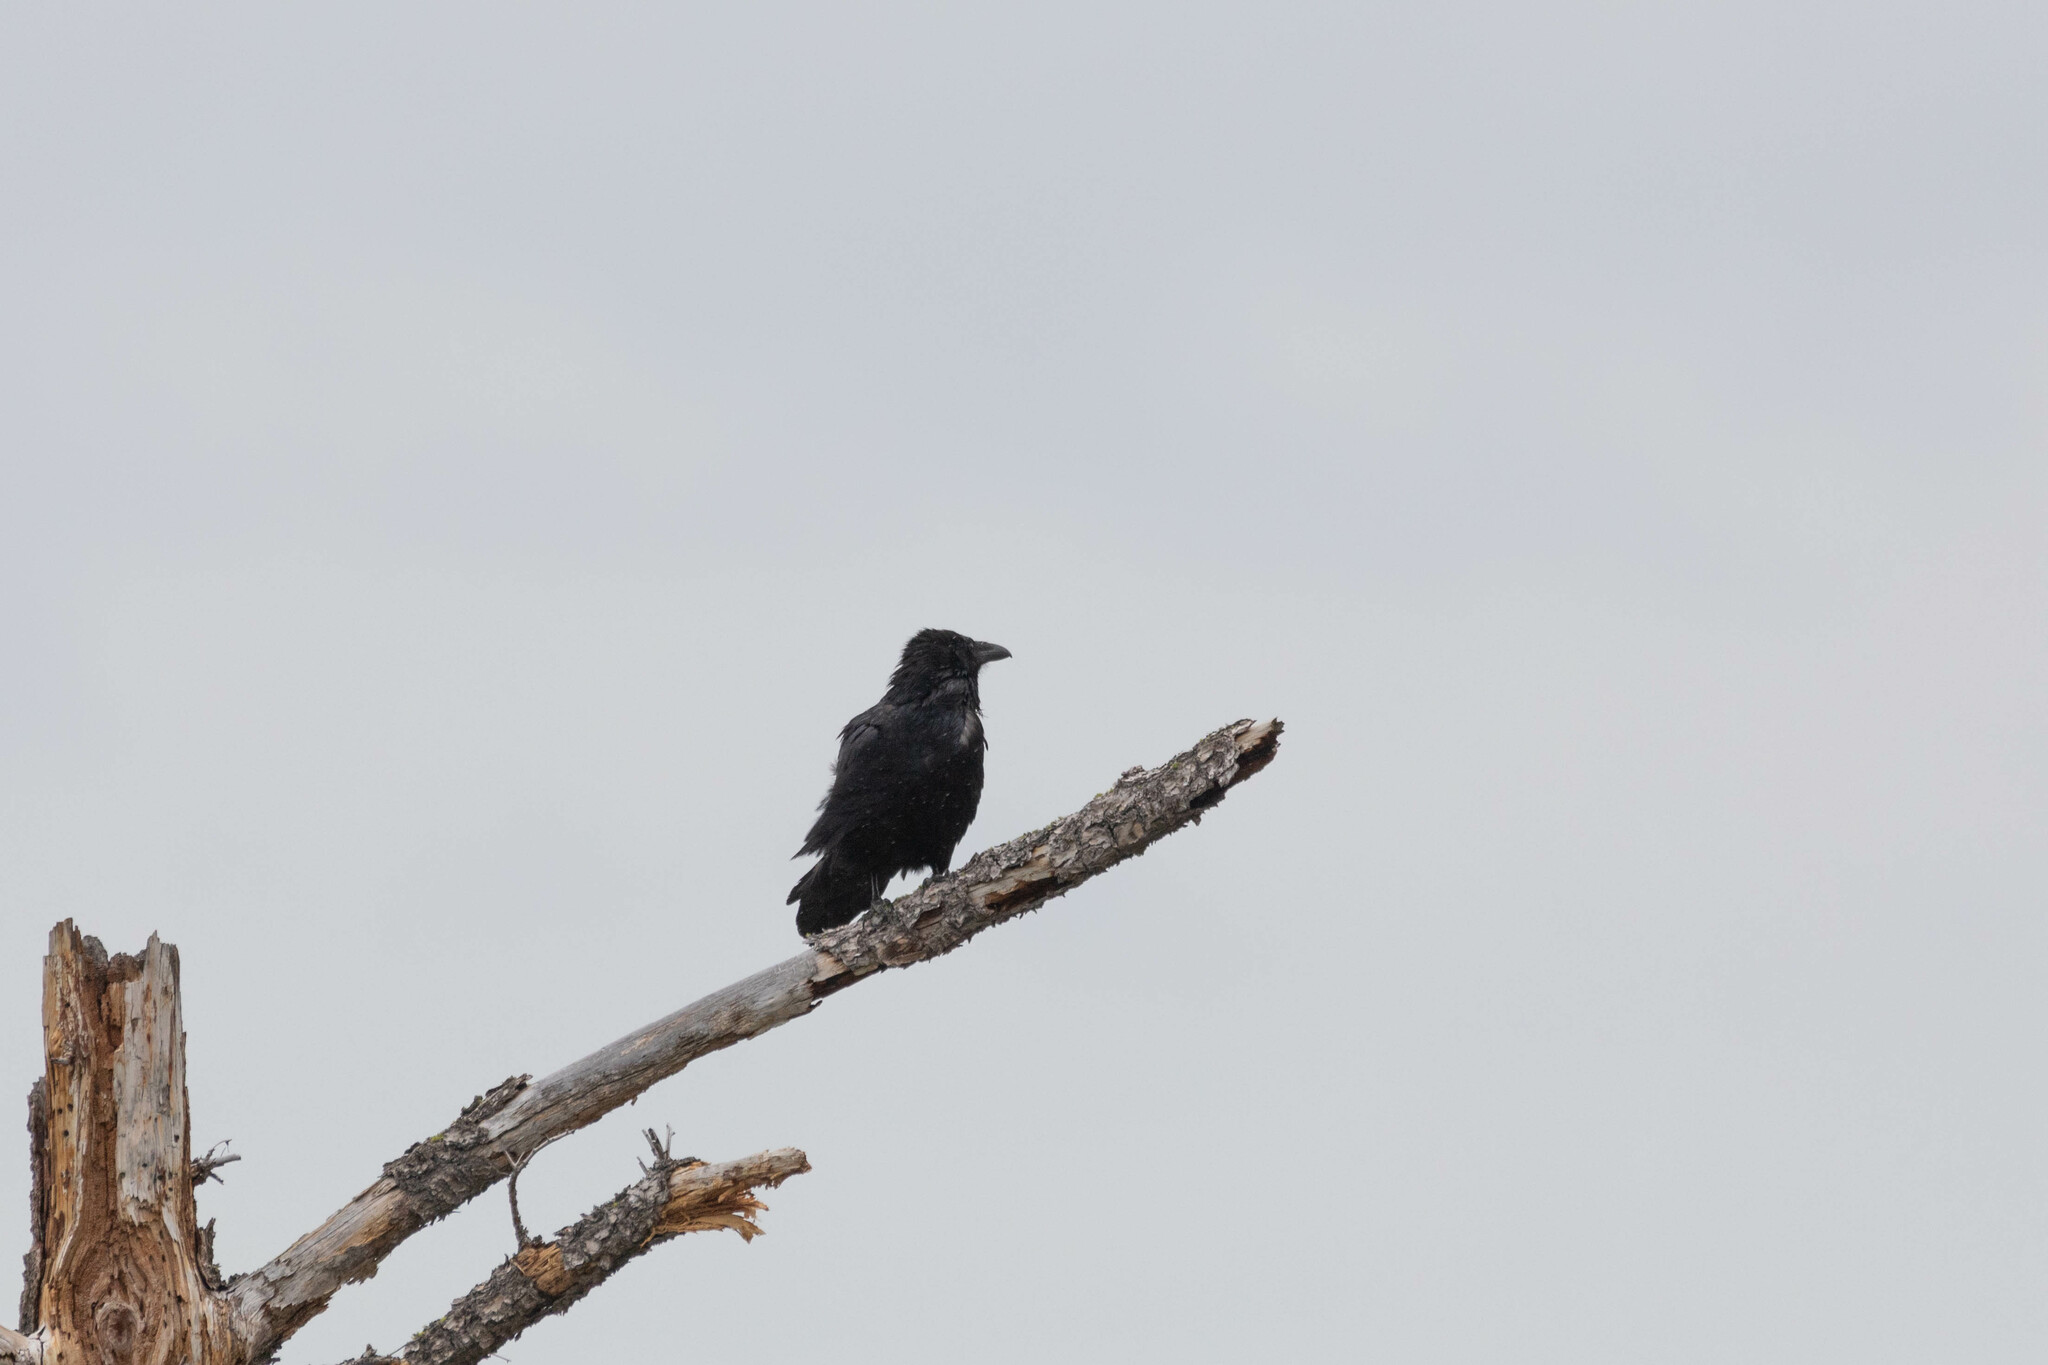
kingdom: Animalia
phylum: Chordata
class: Aves
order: Passeriformes
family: Corvidae
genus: Corvus
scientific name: Corvus corax
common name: Common raven
